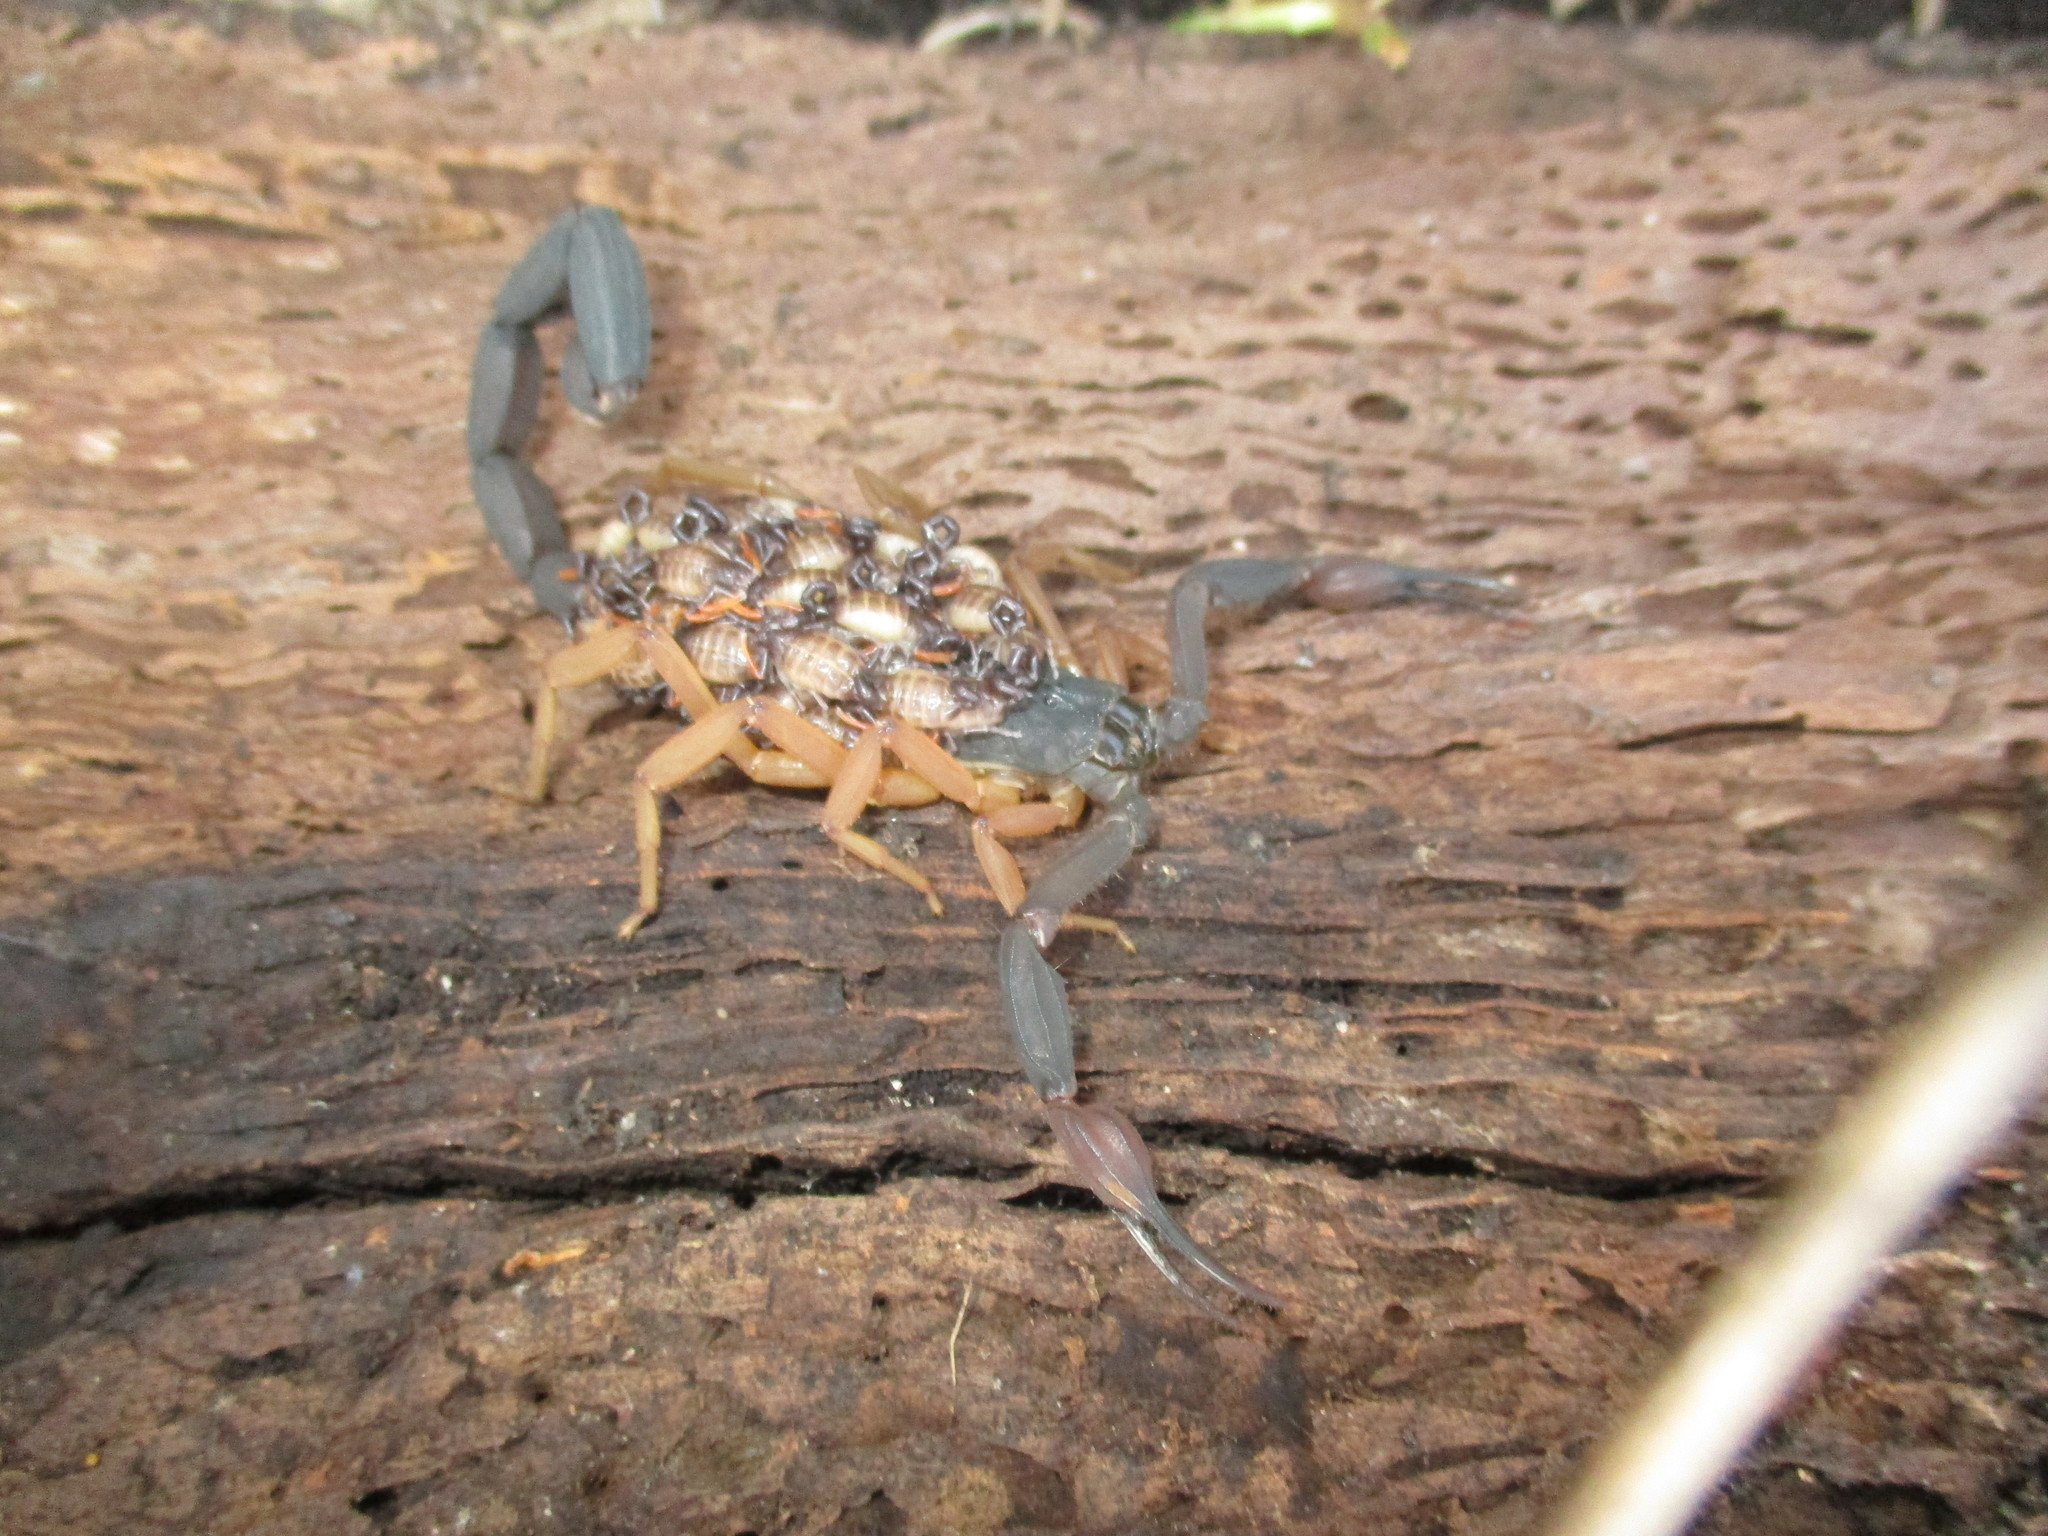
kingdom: Animalia
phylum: Arthropoda
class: Arachnida
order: Scorpiones
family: Buthidae
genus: Centruroides
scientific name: Centruroides gracilis
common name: Scorpions
